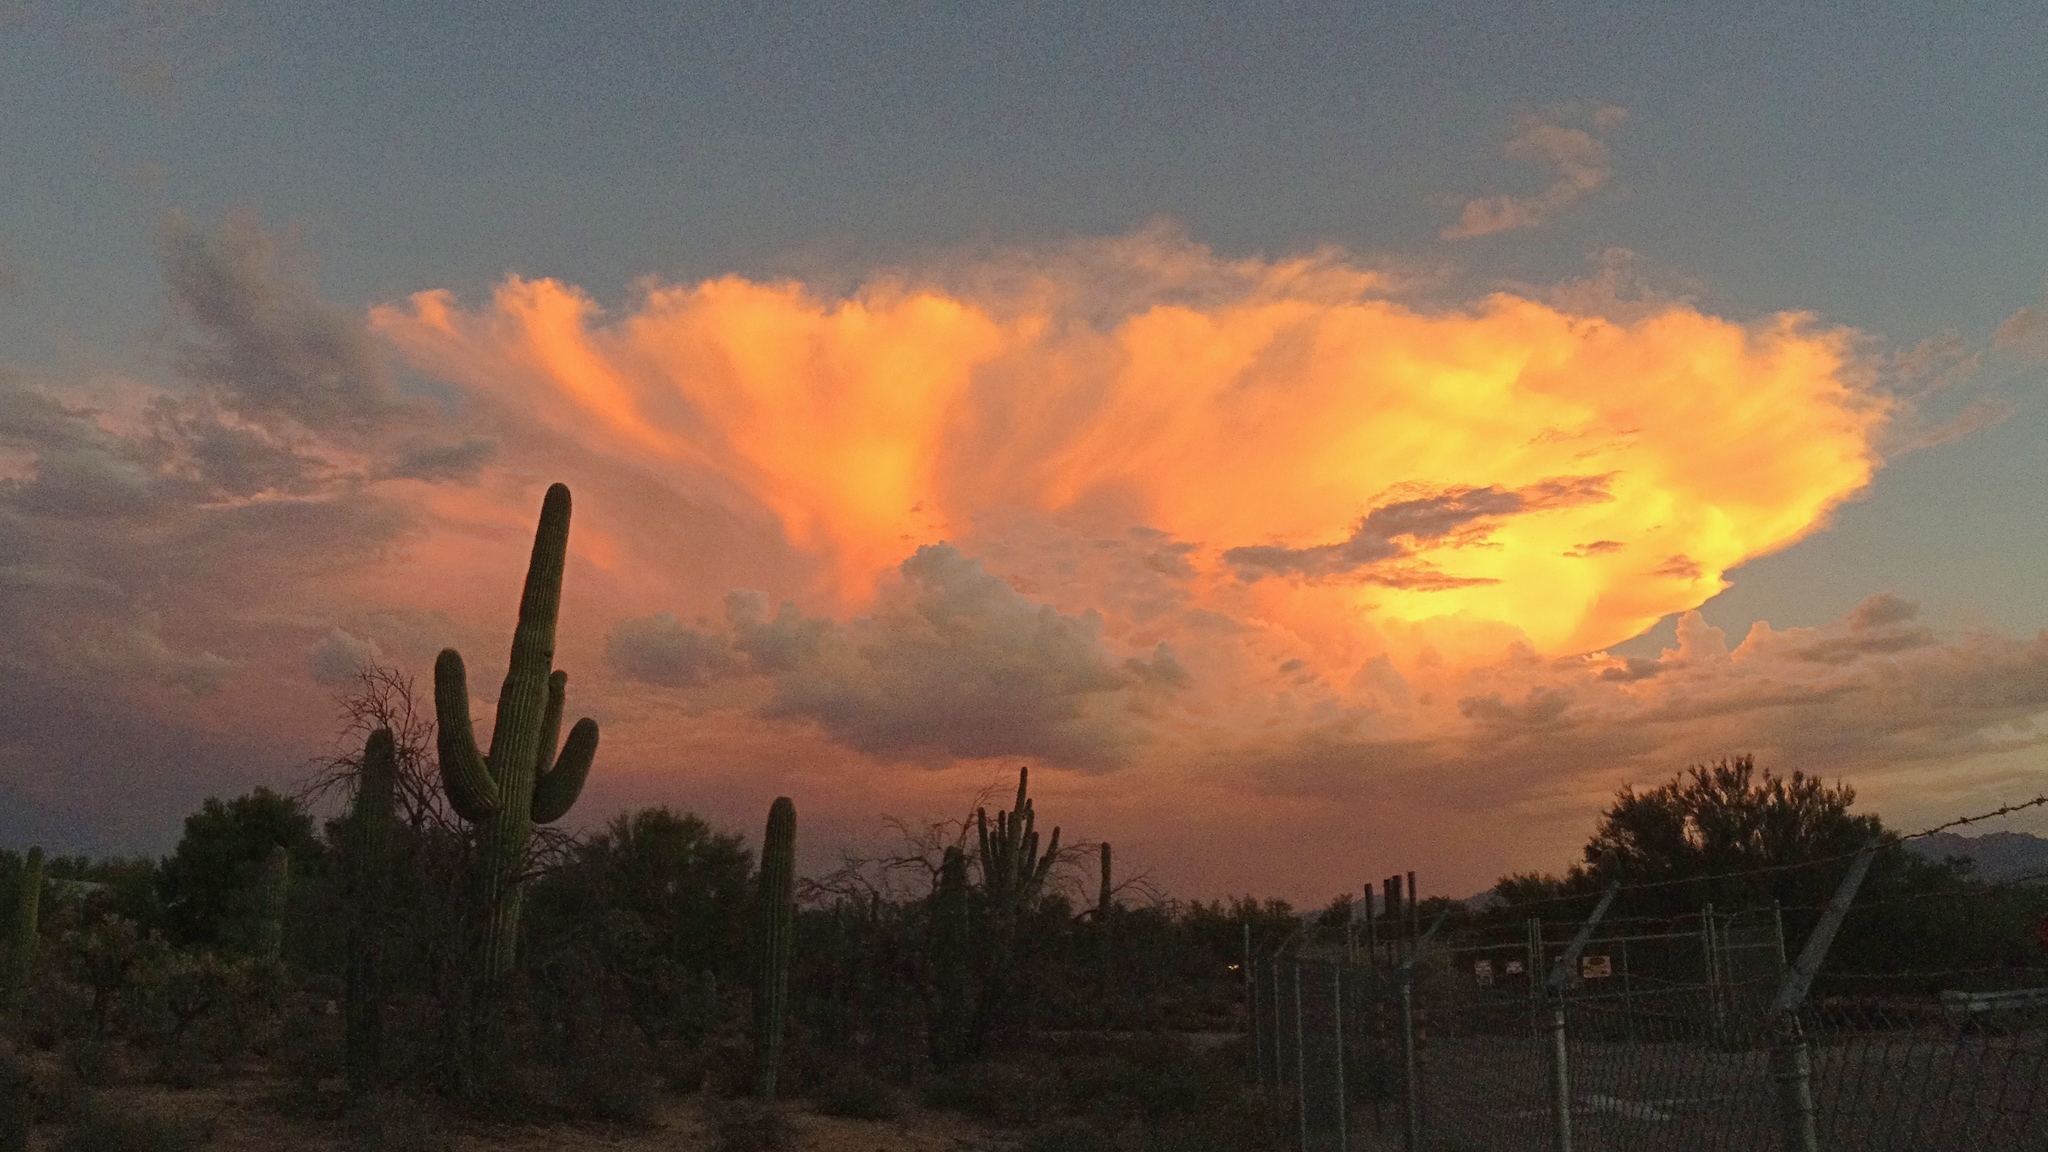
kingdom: Plantae
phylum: Tracheophyta
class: Magnoliopsida
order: Caryophyllales
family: Cactaceae
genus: Carnegiea
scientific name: Carnegiea gigantea
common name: Saguaro
